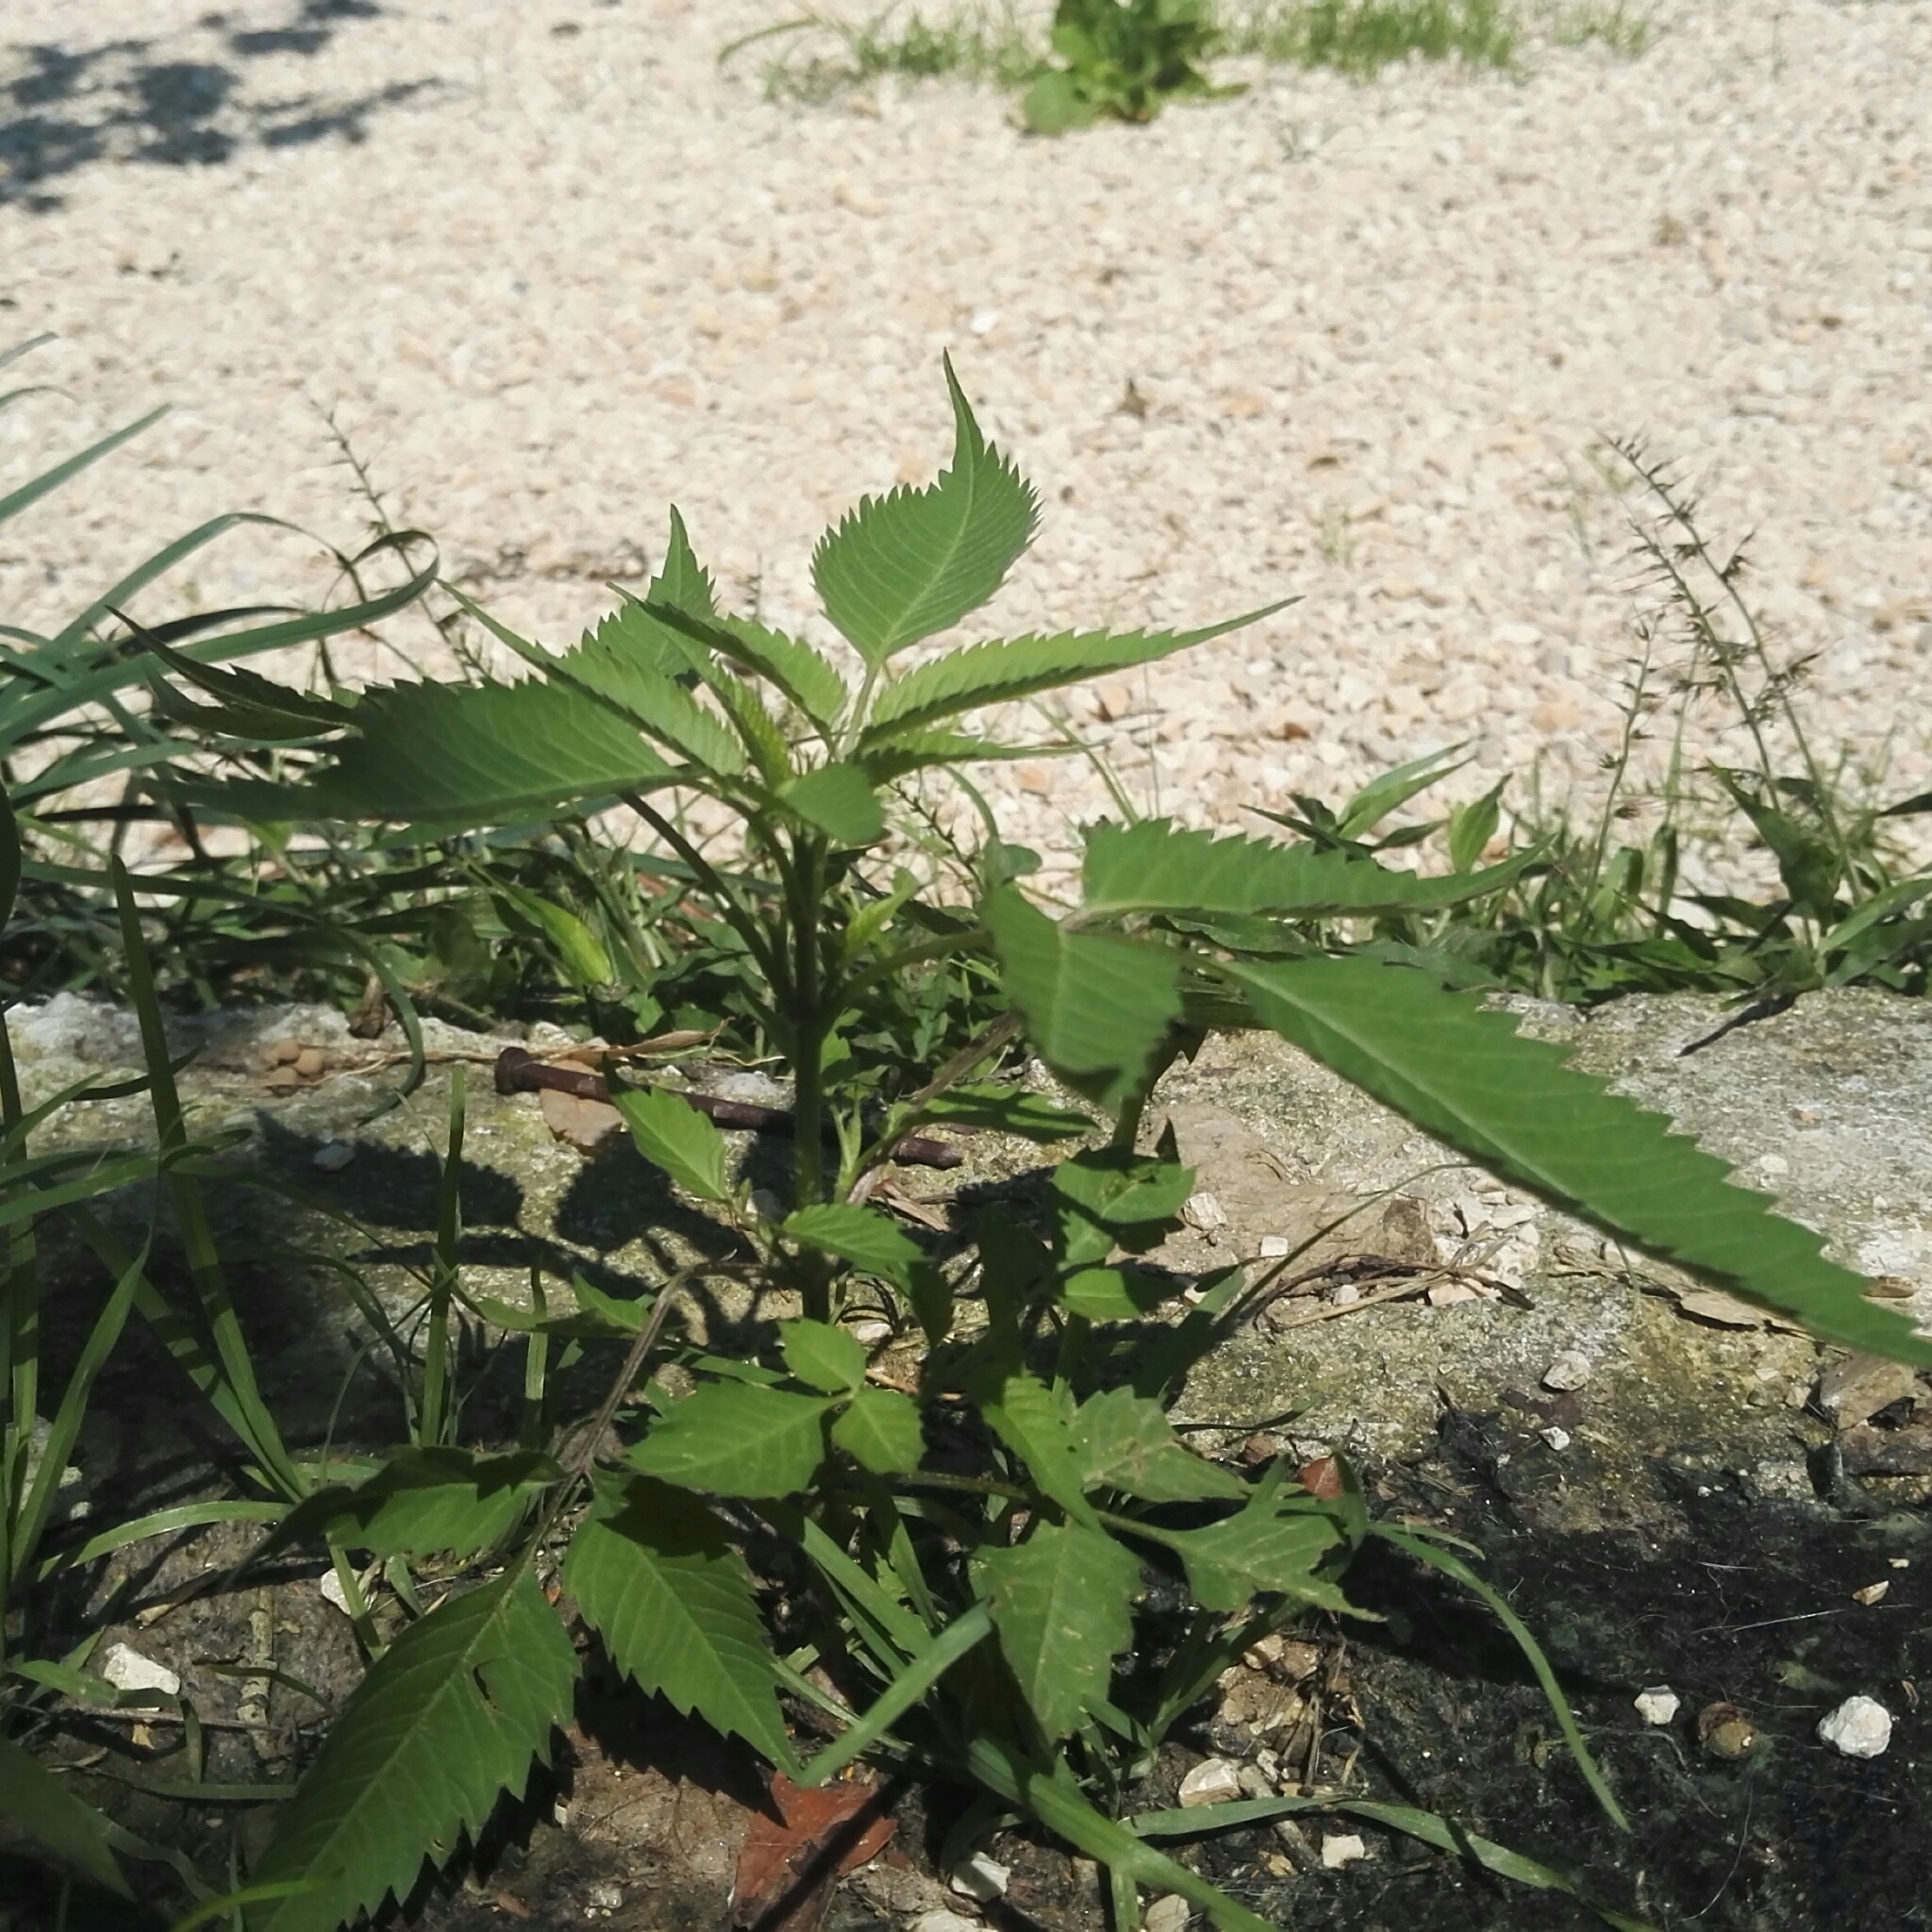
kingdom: Plantae
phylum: Tracheophyta
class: Magnoliopsida
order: Asterales
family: Asteraceae
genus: Bidens
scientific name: Bidens frondosa
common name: Beggarticks
